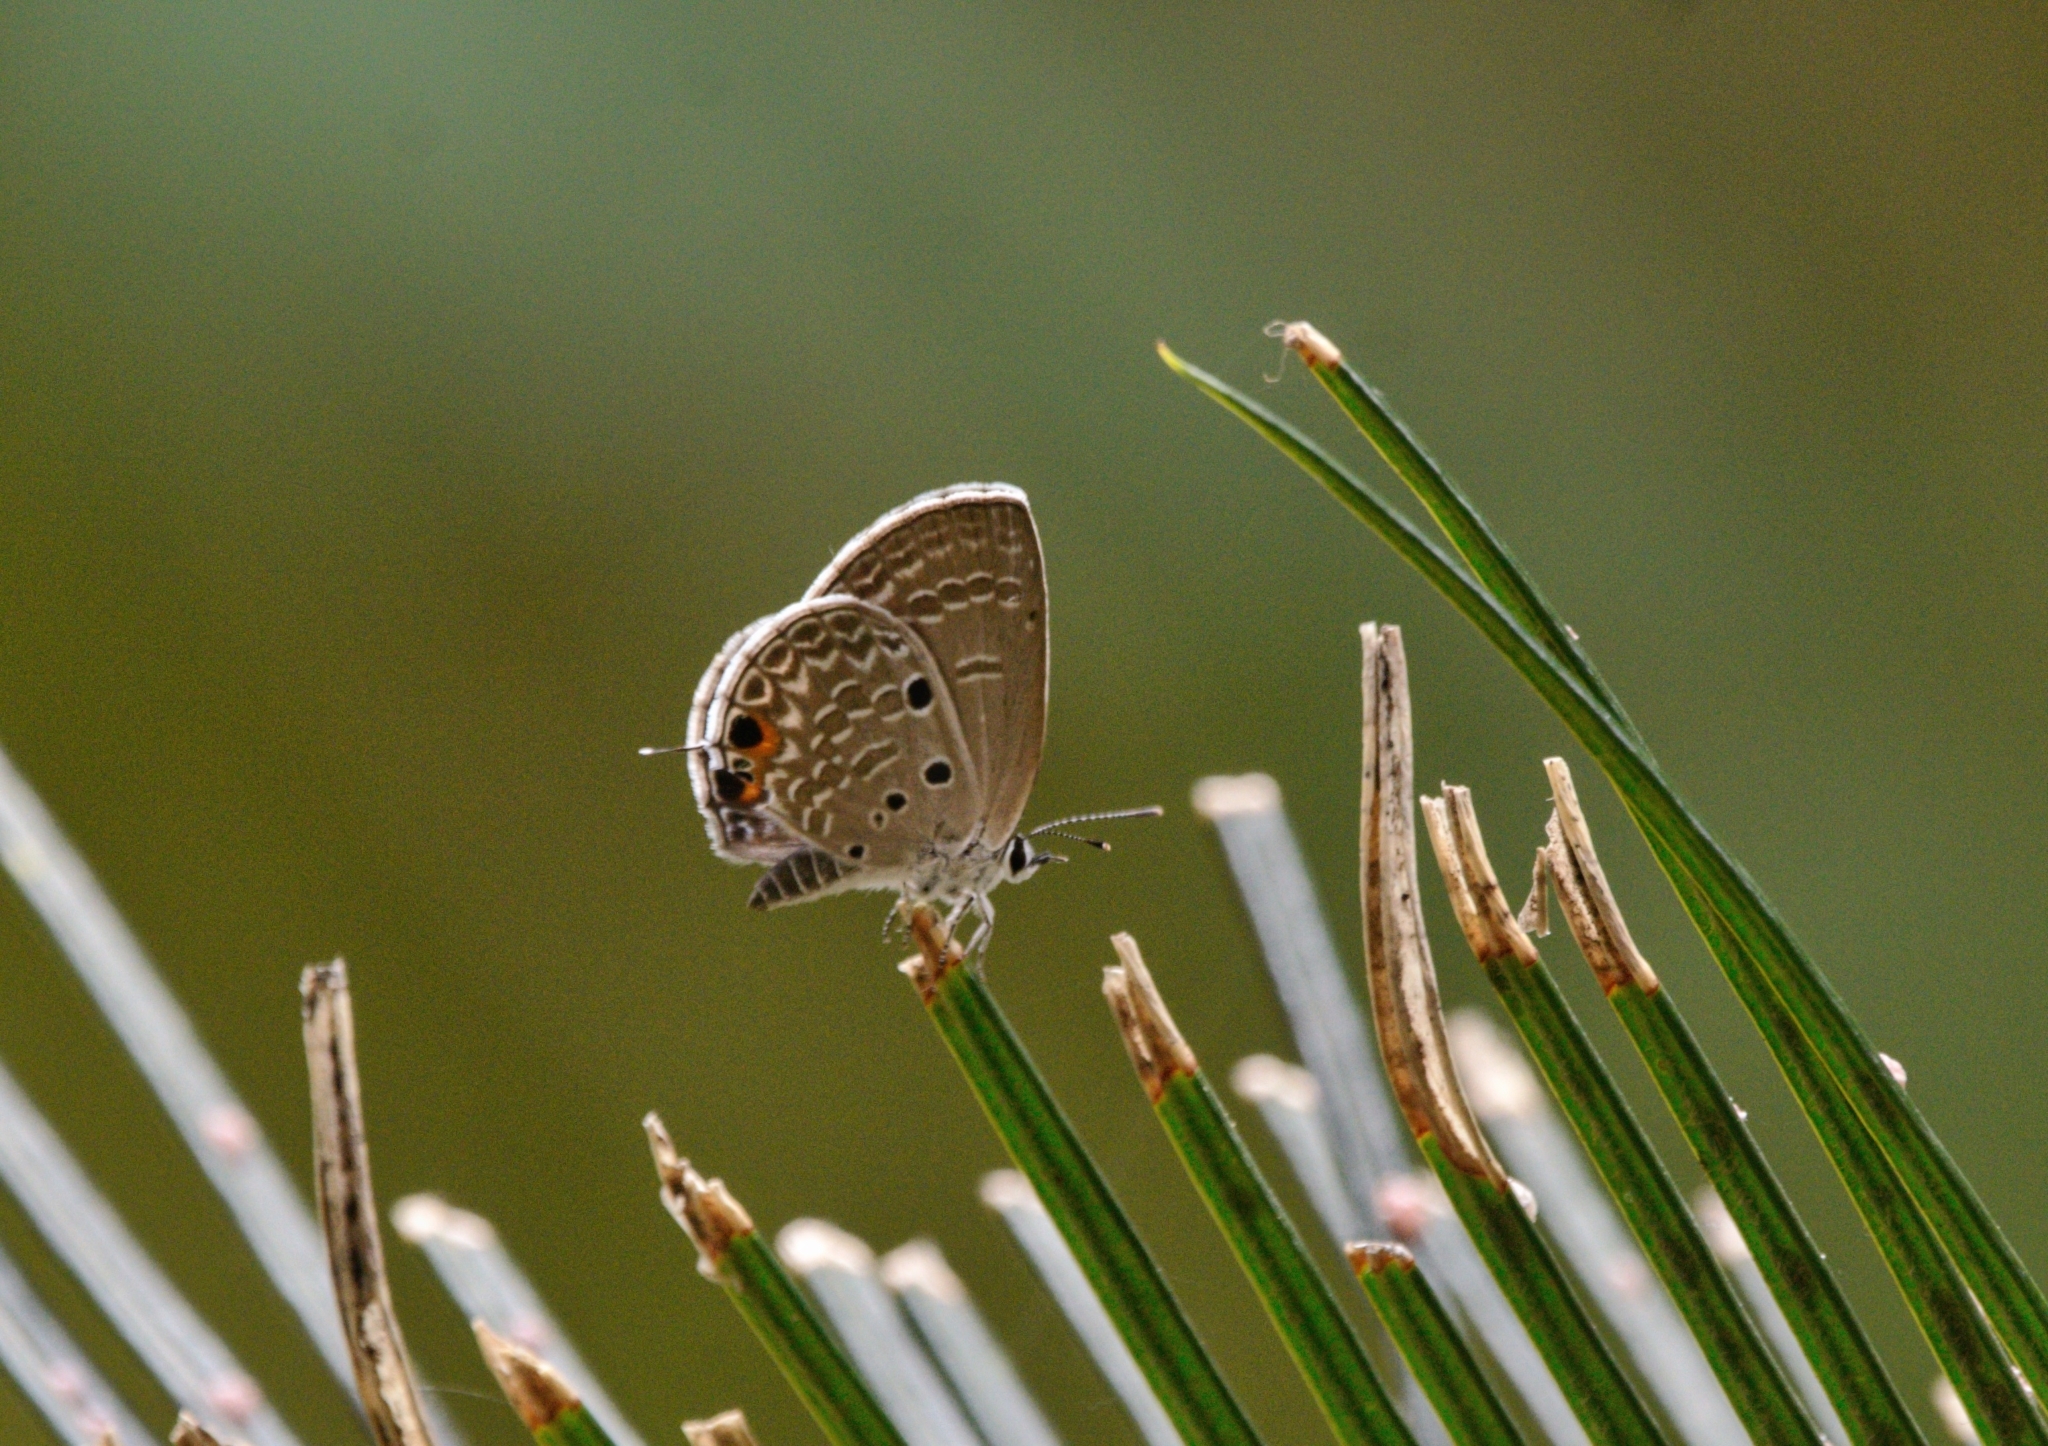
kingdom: Animalia
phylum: Arthropoda
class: Insecta
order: Lepidoptera
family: Lycaenidae
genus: Luthrodes
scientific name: Luthrodes pandava
